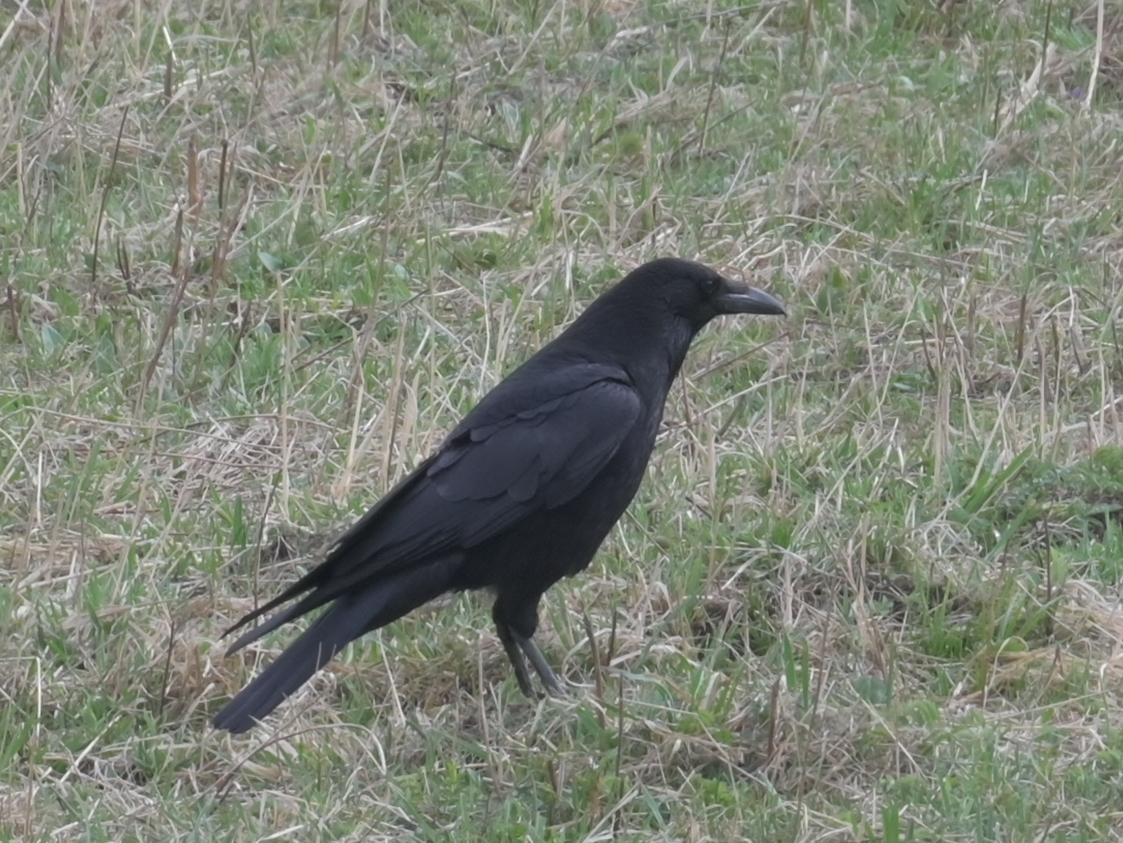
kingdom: Animalia
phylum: Chordata
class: Aves
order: Passeriformes
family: Corvidae
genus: Corvus
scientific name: Corvus corone
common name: Carrion crow
